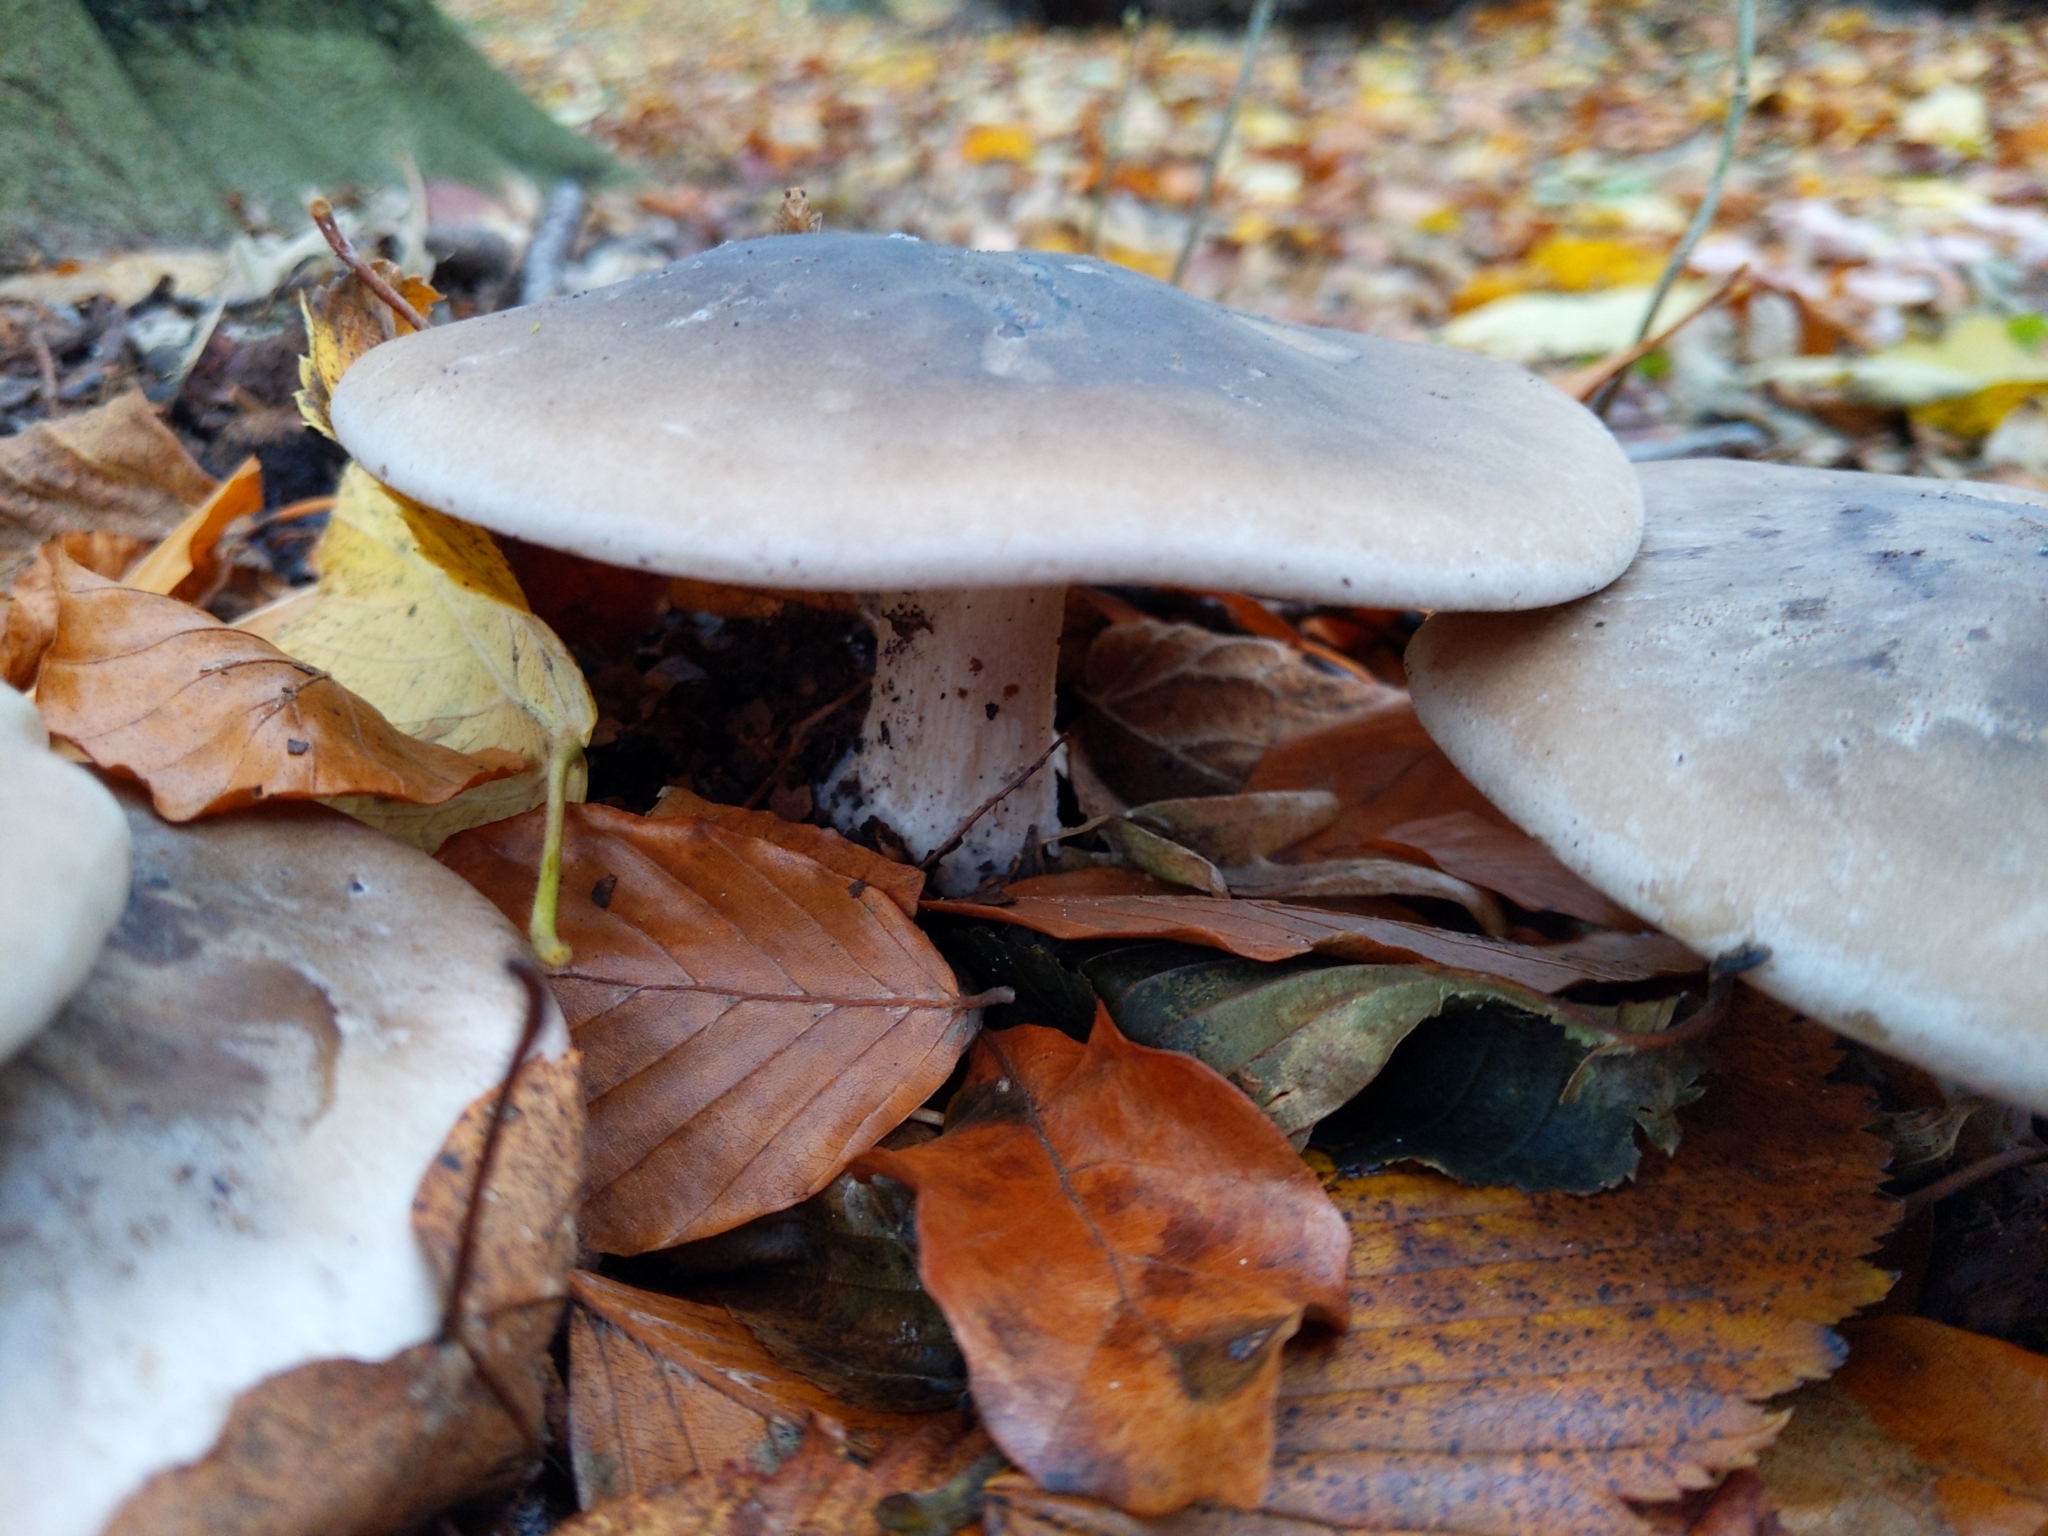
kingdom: Fungi
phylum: Basidiomycota
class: Agaricomycetes
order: Agaricales
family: Tricholomataceae
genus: Clitocybe
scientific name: Clitocybe nebularis
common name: Clouded agaric
